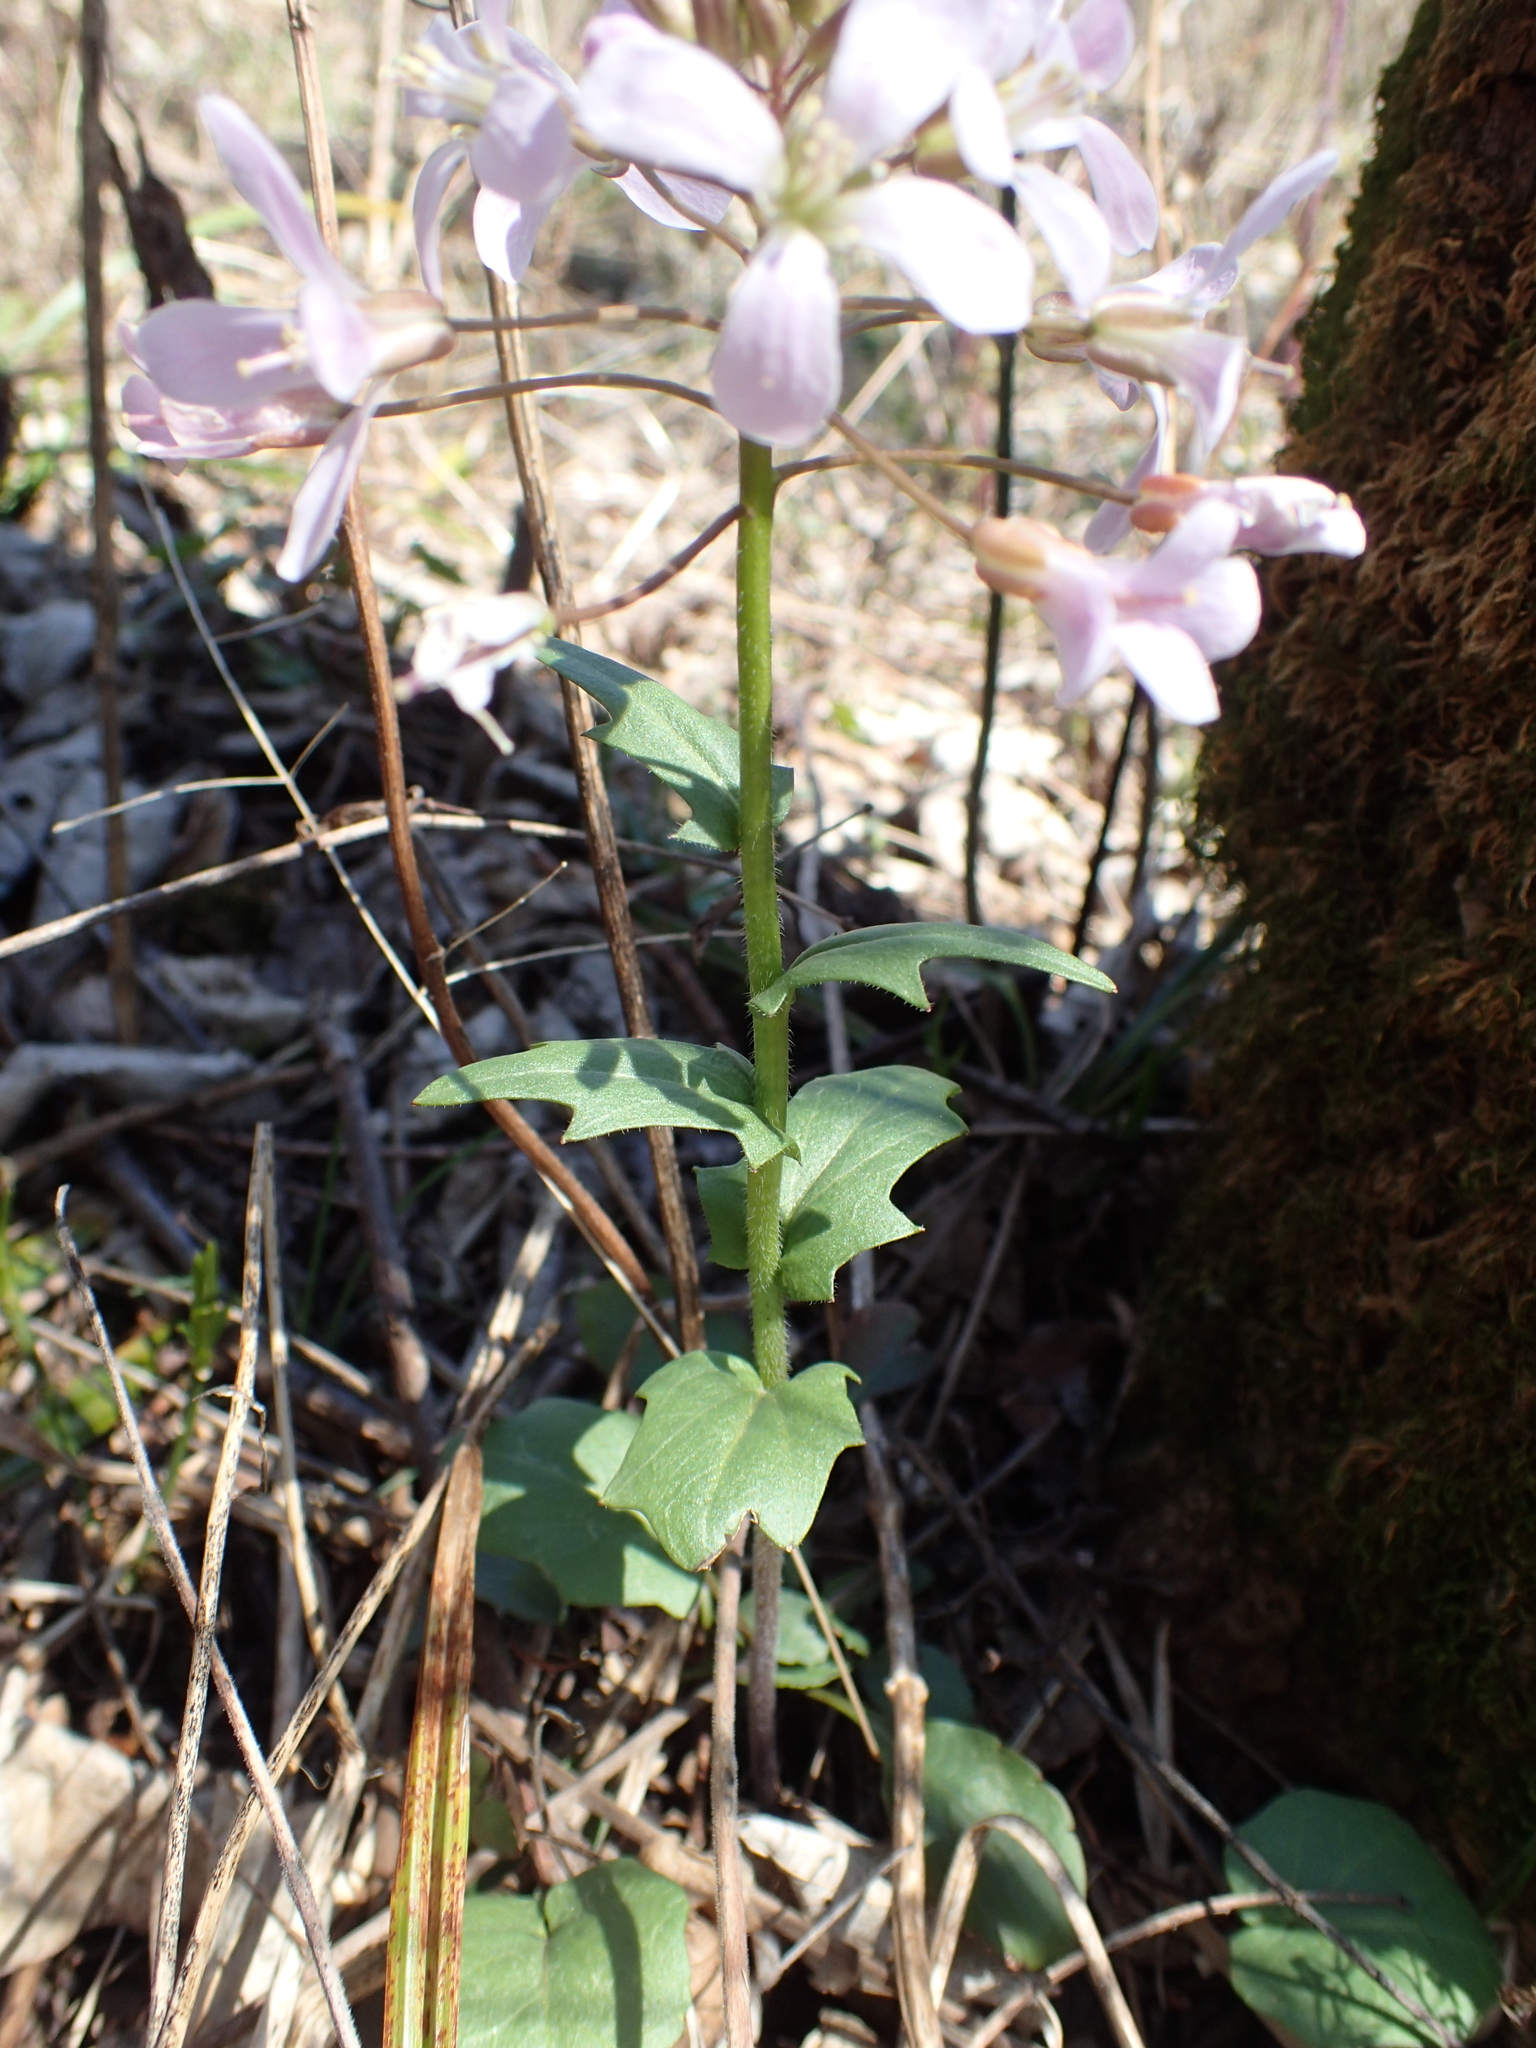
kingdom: Plantae
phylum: Tracheophyta
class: Magnoliopsida
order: Brassicales
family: Brassicaceae
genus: Cardamine
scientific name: Cardamine douglassii
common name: Purple cress
